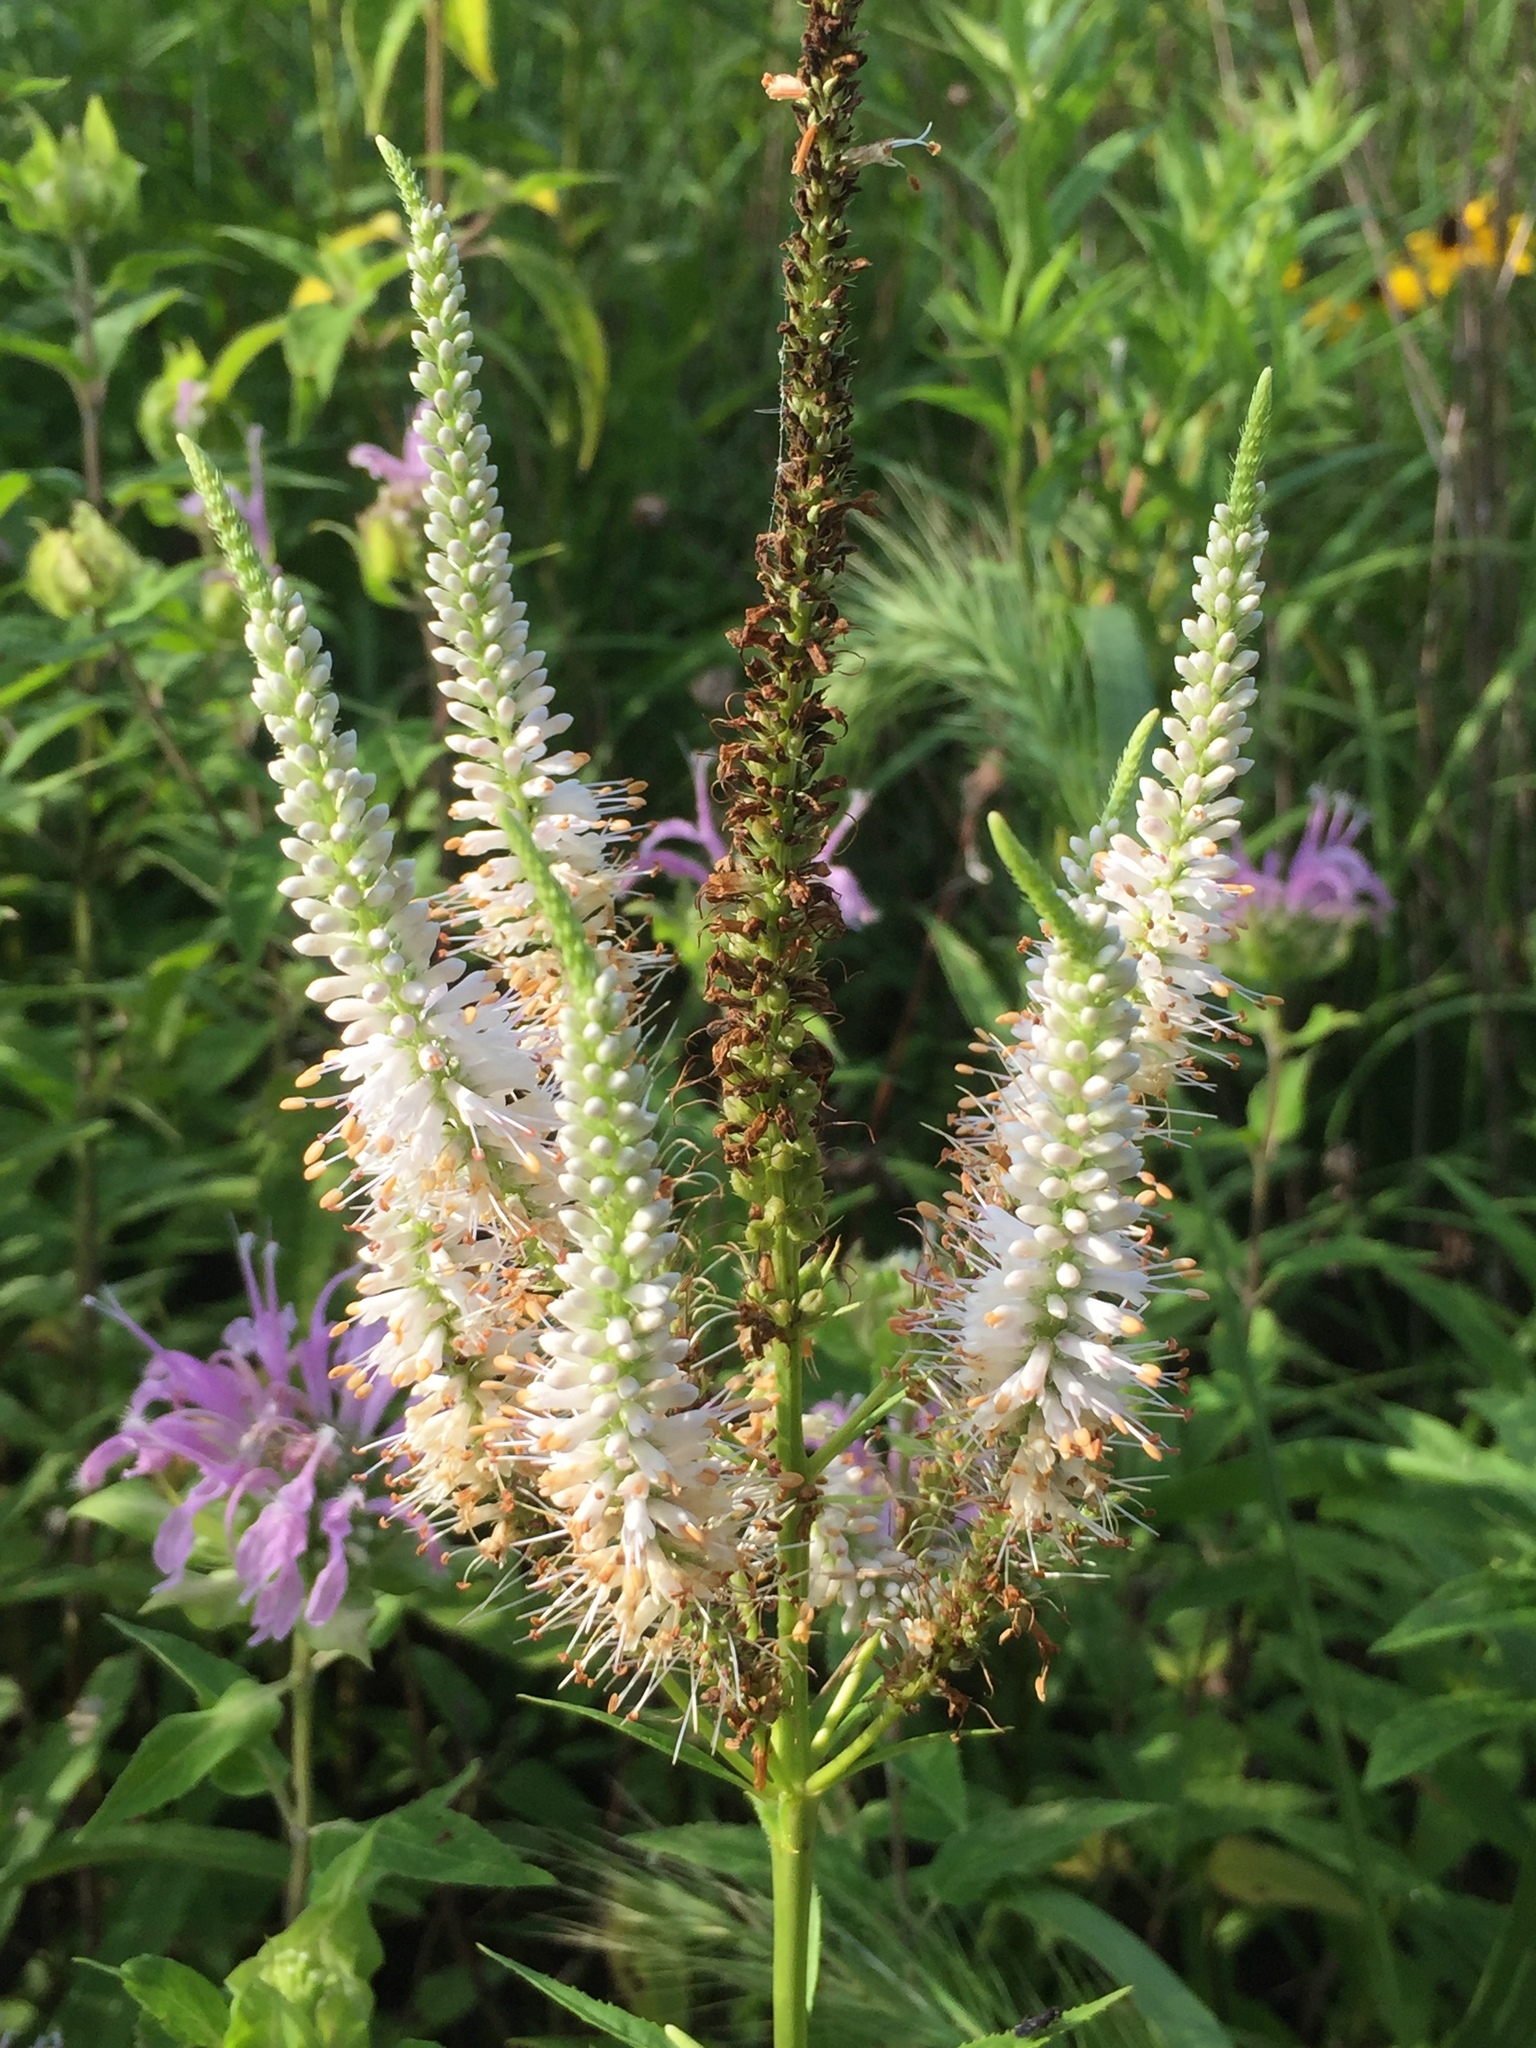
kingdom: Plantae
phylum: Tracheophyta
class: Magnoliopsida
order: Lamiales
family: Plantaginaceae
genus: Veronicastrum
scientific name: Veronicastrum virginicum
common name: Blackroot
